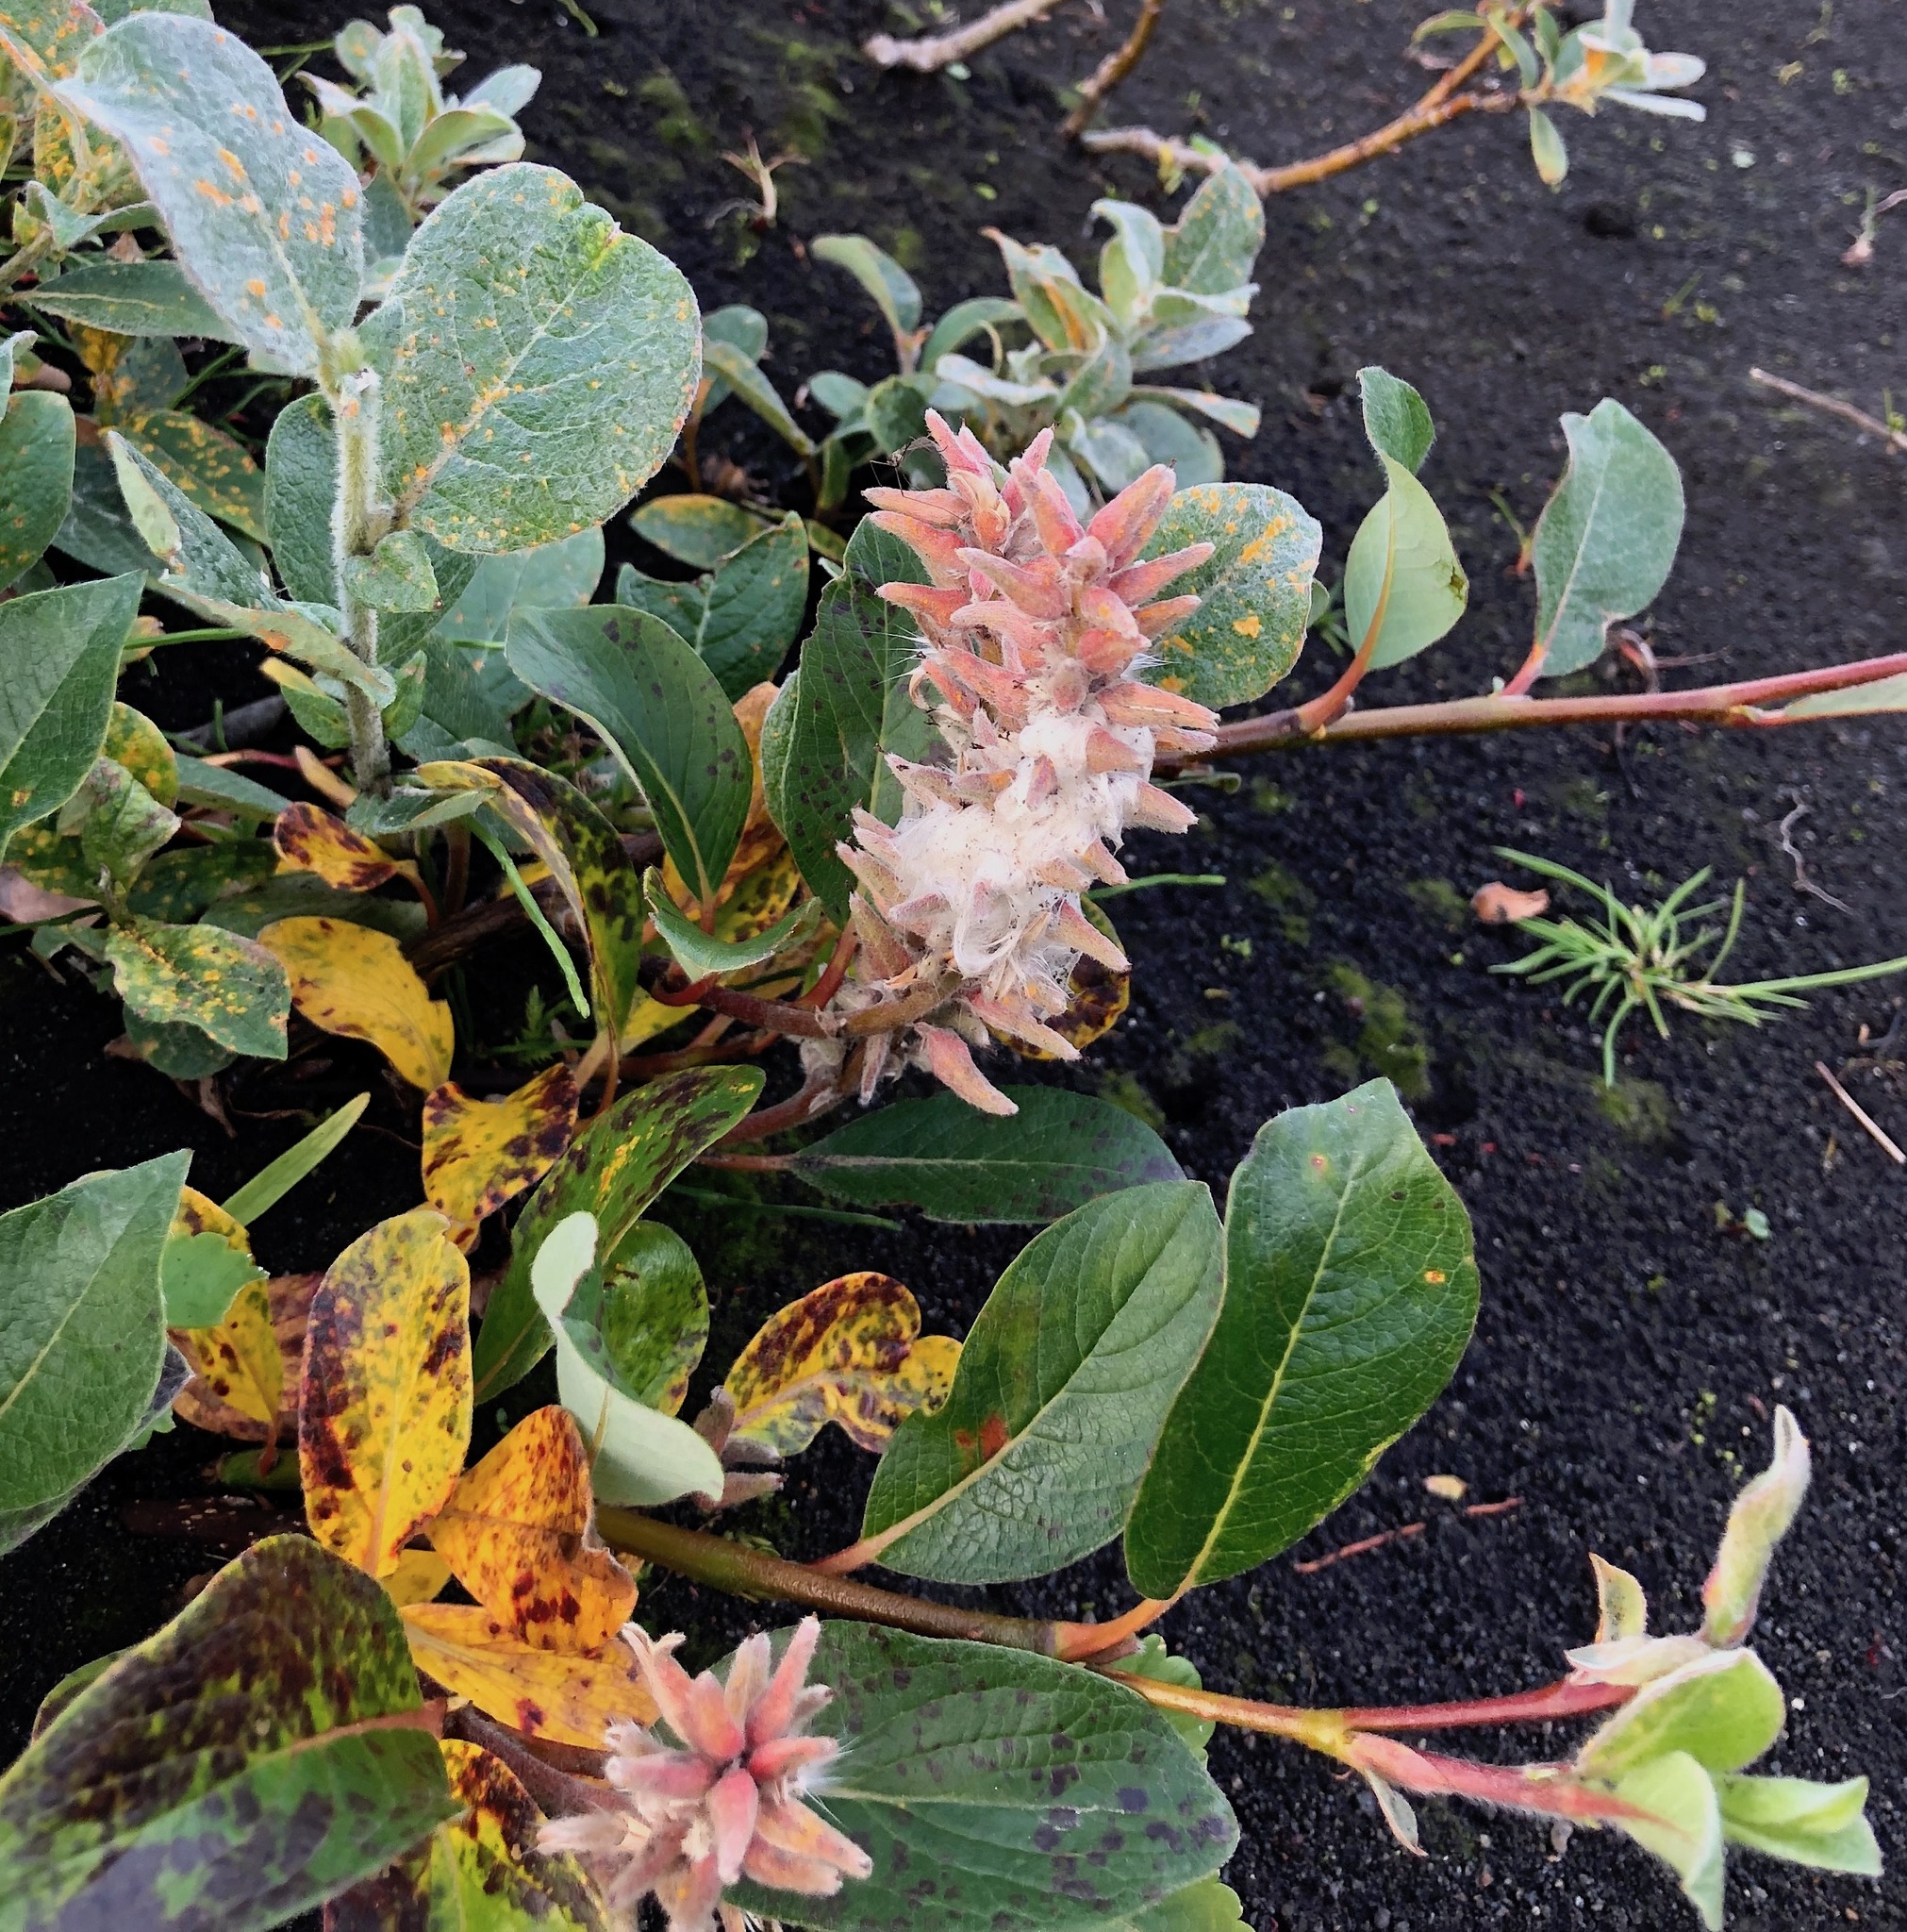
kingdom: Plantae
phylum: Tracheophyta
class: Magnoliopsida
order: Malpighiales
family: Salicaceae
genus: Salix
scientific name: Salix arctica
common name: Arctic willow
